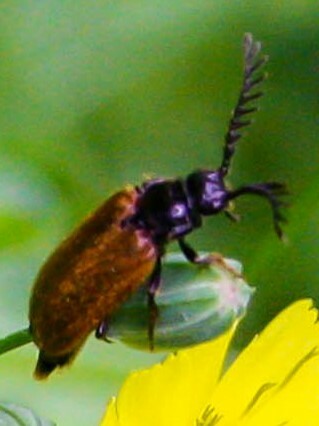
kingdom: Animalia
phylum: Arthropoda
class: Insecta
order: Coleoptera
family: Drilidae
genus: Drilus
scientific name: Drilus flavescens
